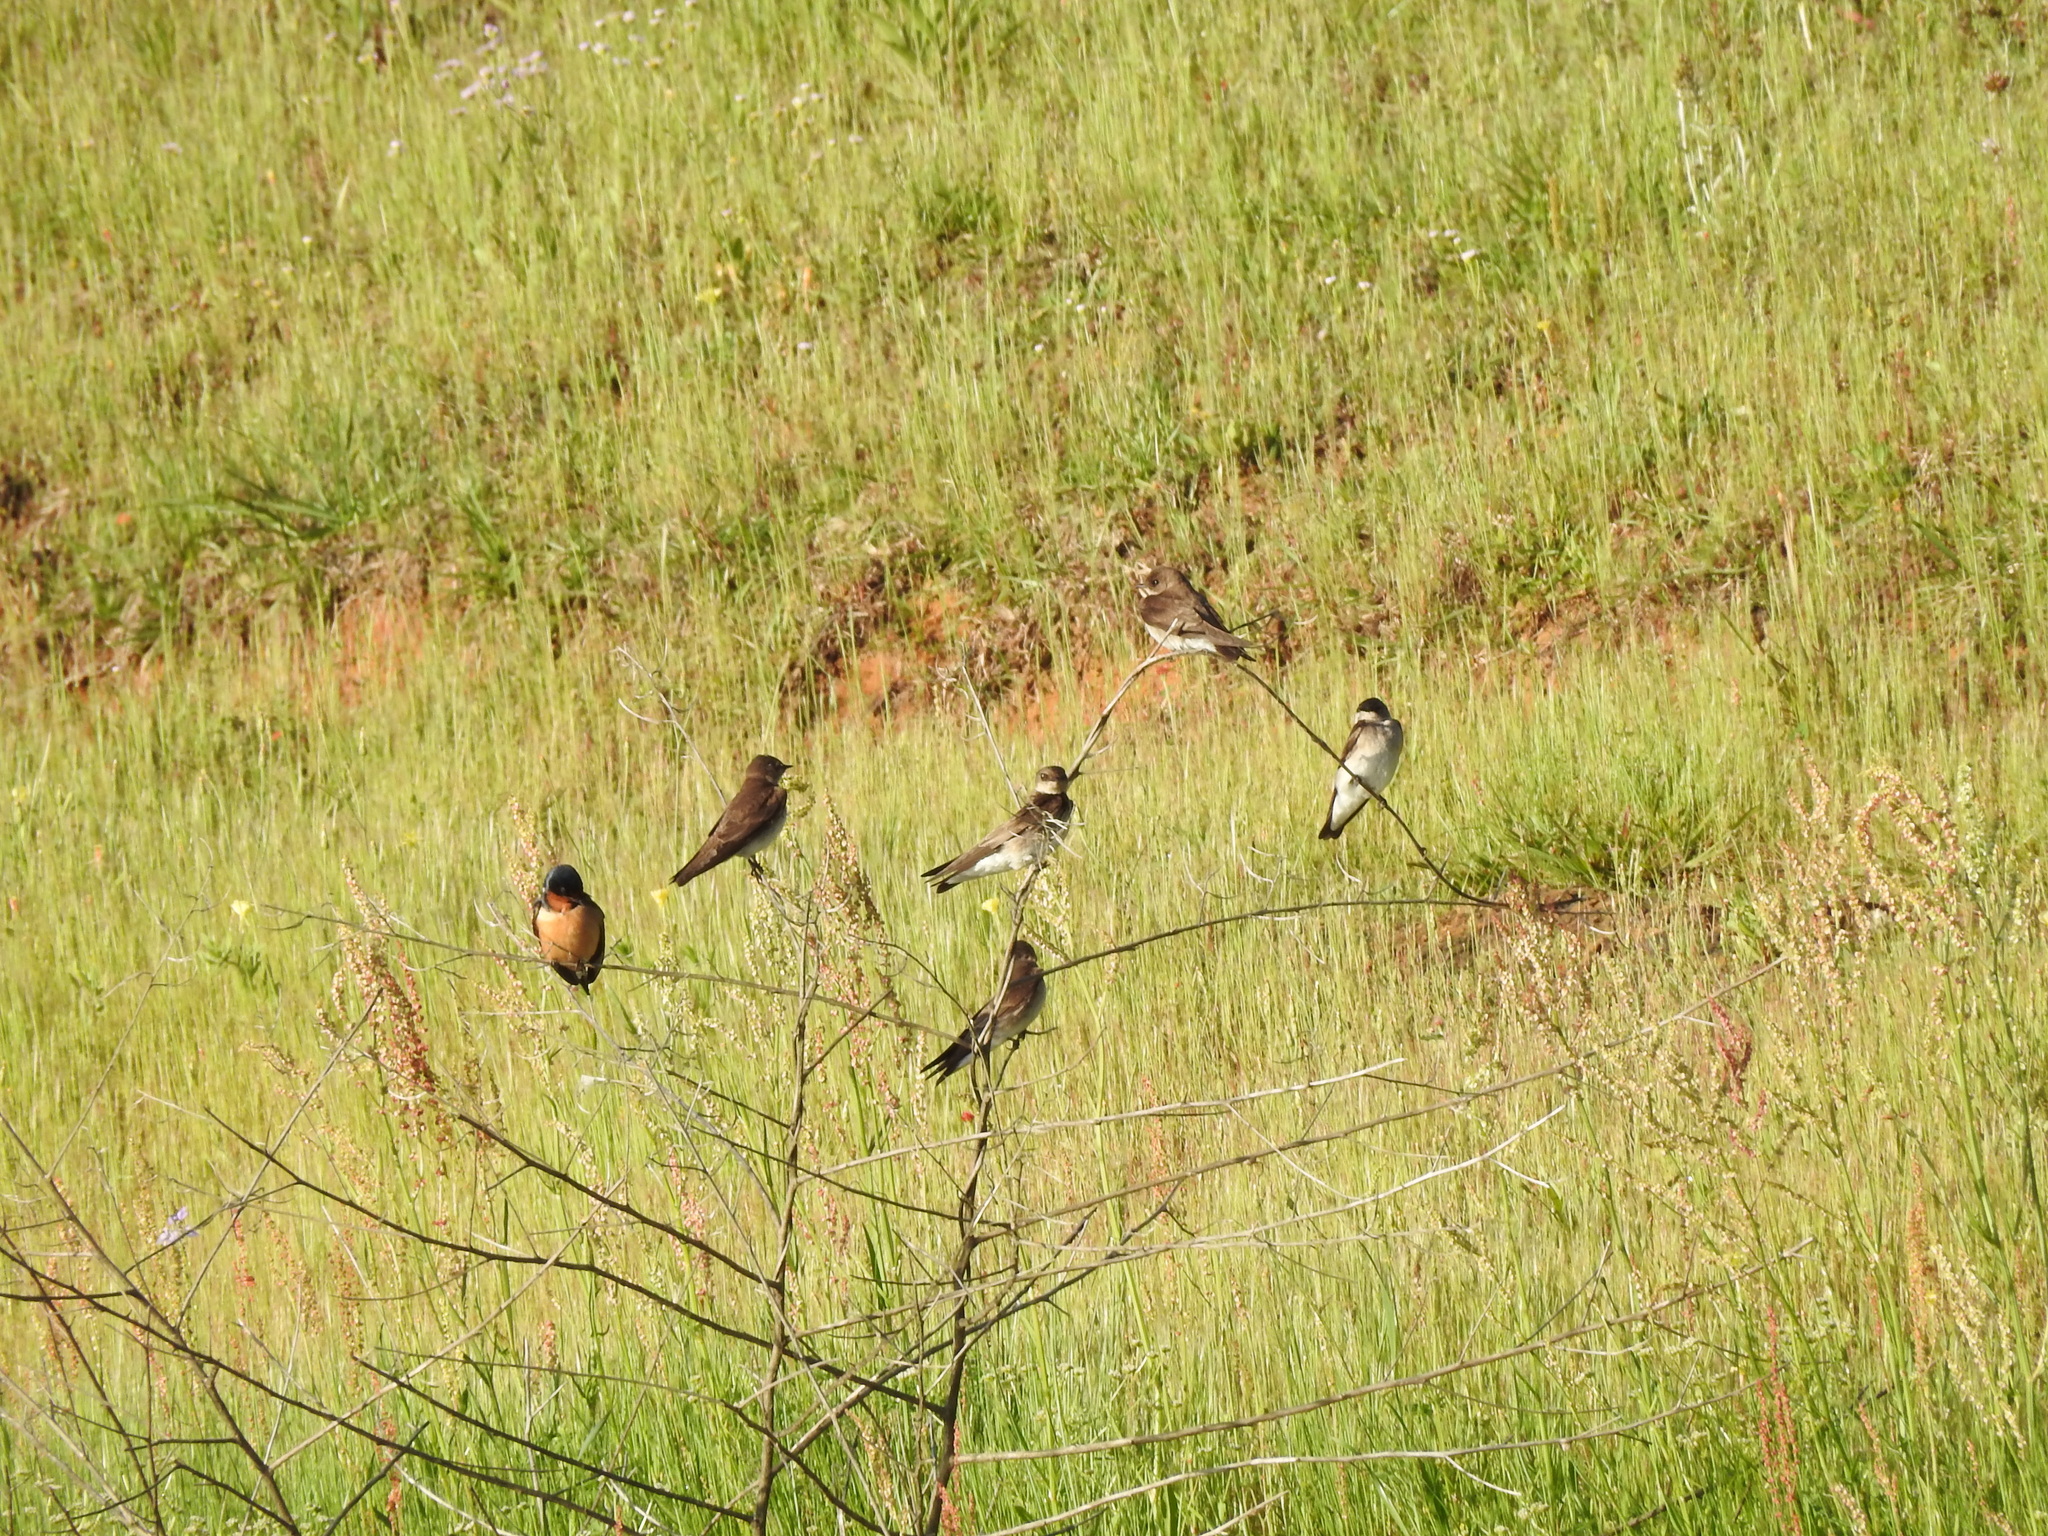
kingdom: Animalia
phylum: Chordata
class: Aves
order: Passeriformes
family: Hirundinidae
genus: Stelgidopteryx
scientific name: Stelgidopteryx serripennis
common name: Northern rough-winged swallow
